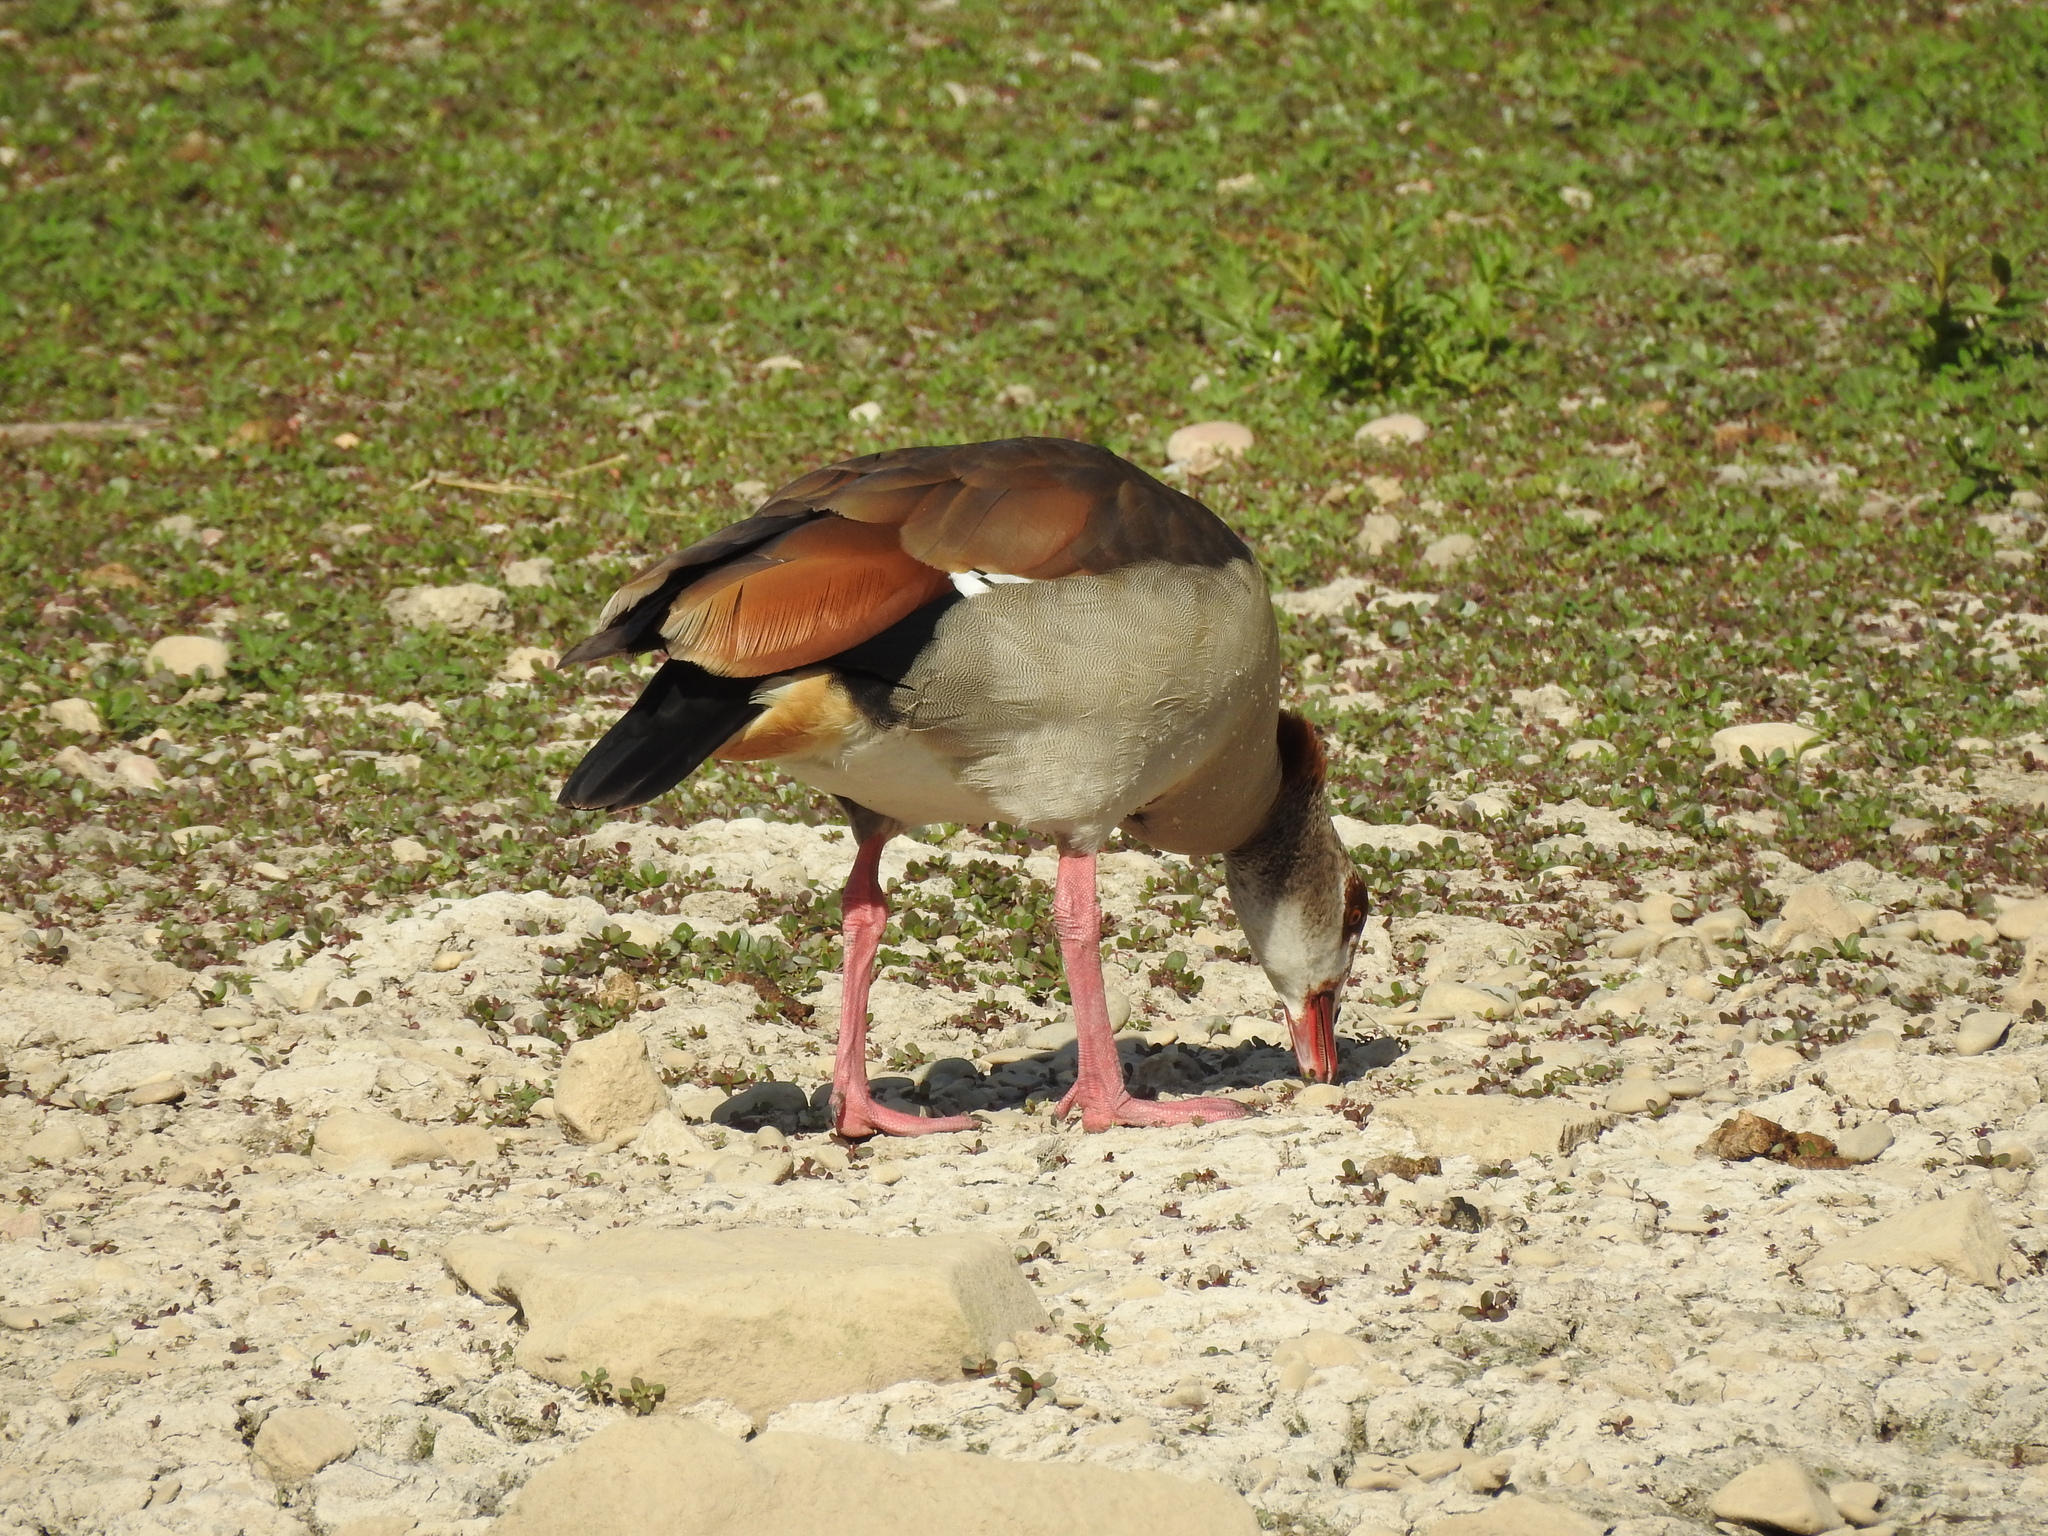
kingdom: Animalia
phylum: Chordata
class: Aves
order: Anseriformes
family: Anatidae
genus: Alopochen
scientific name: Alopochen aegyptiaca
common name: Egyptian goose
